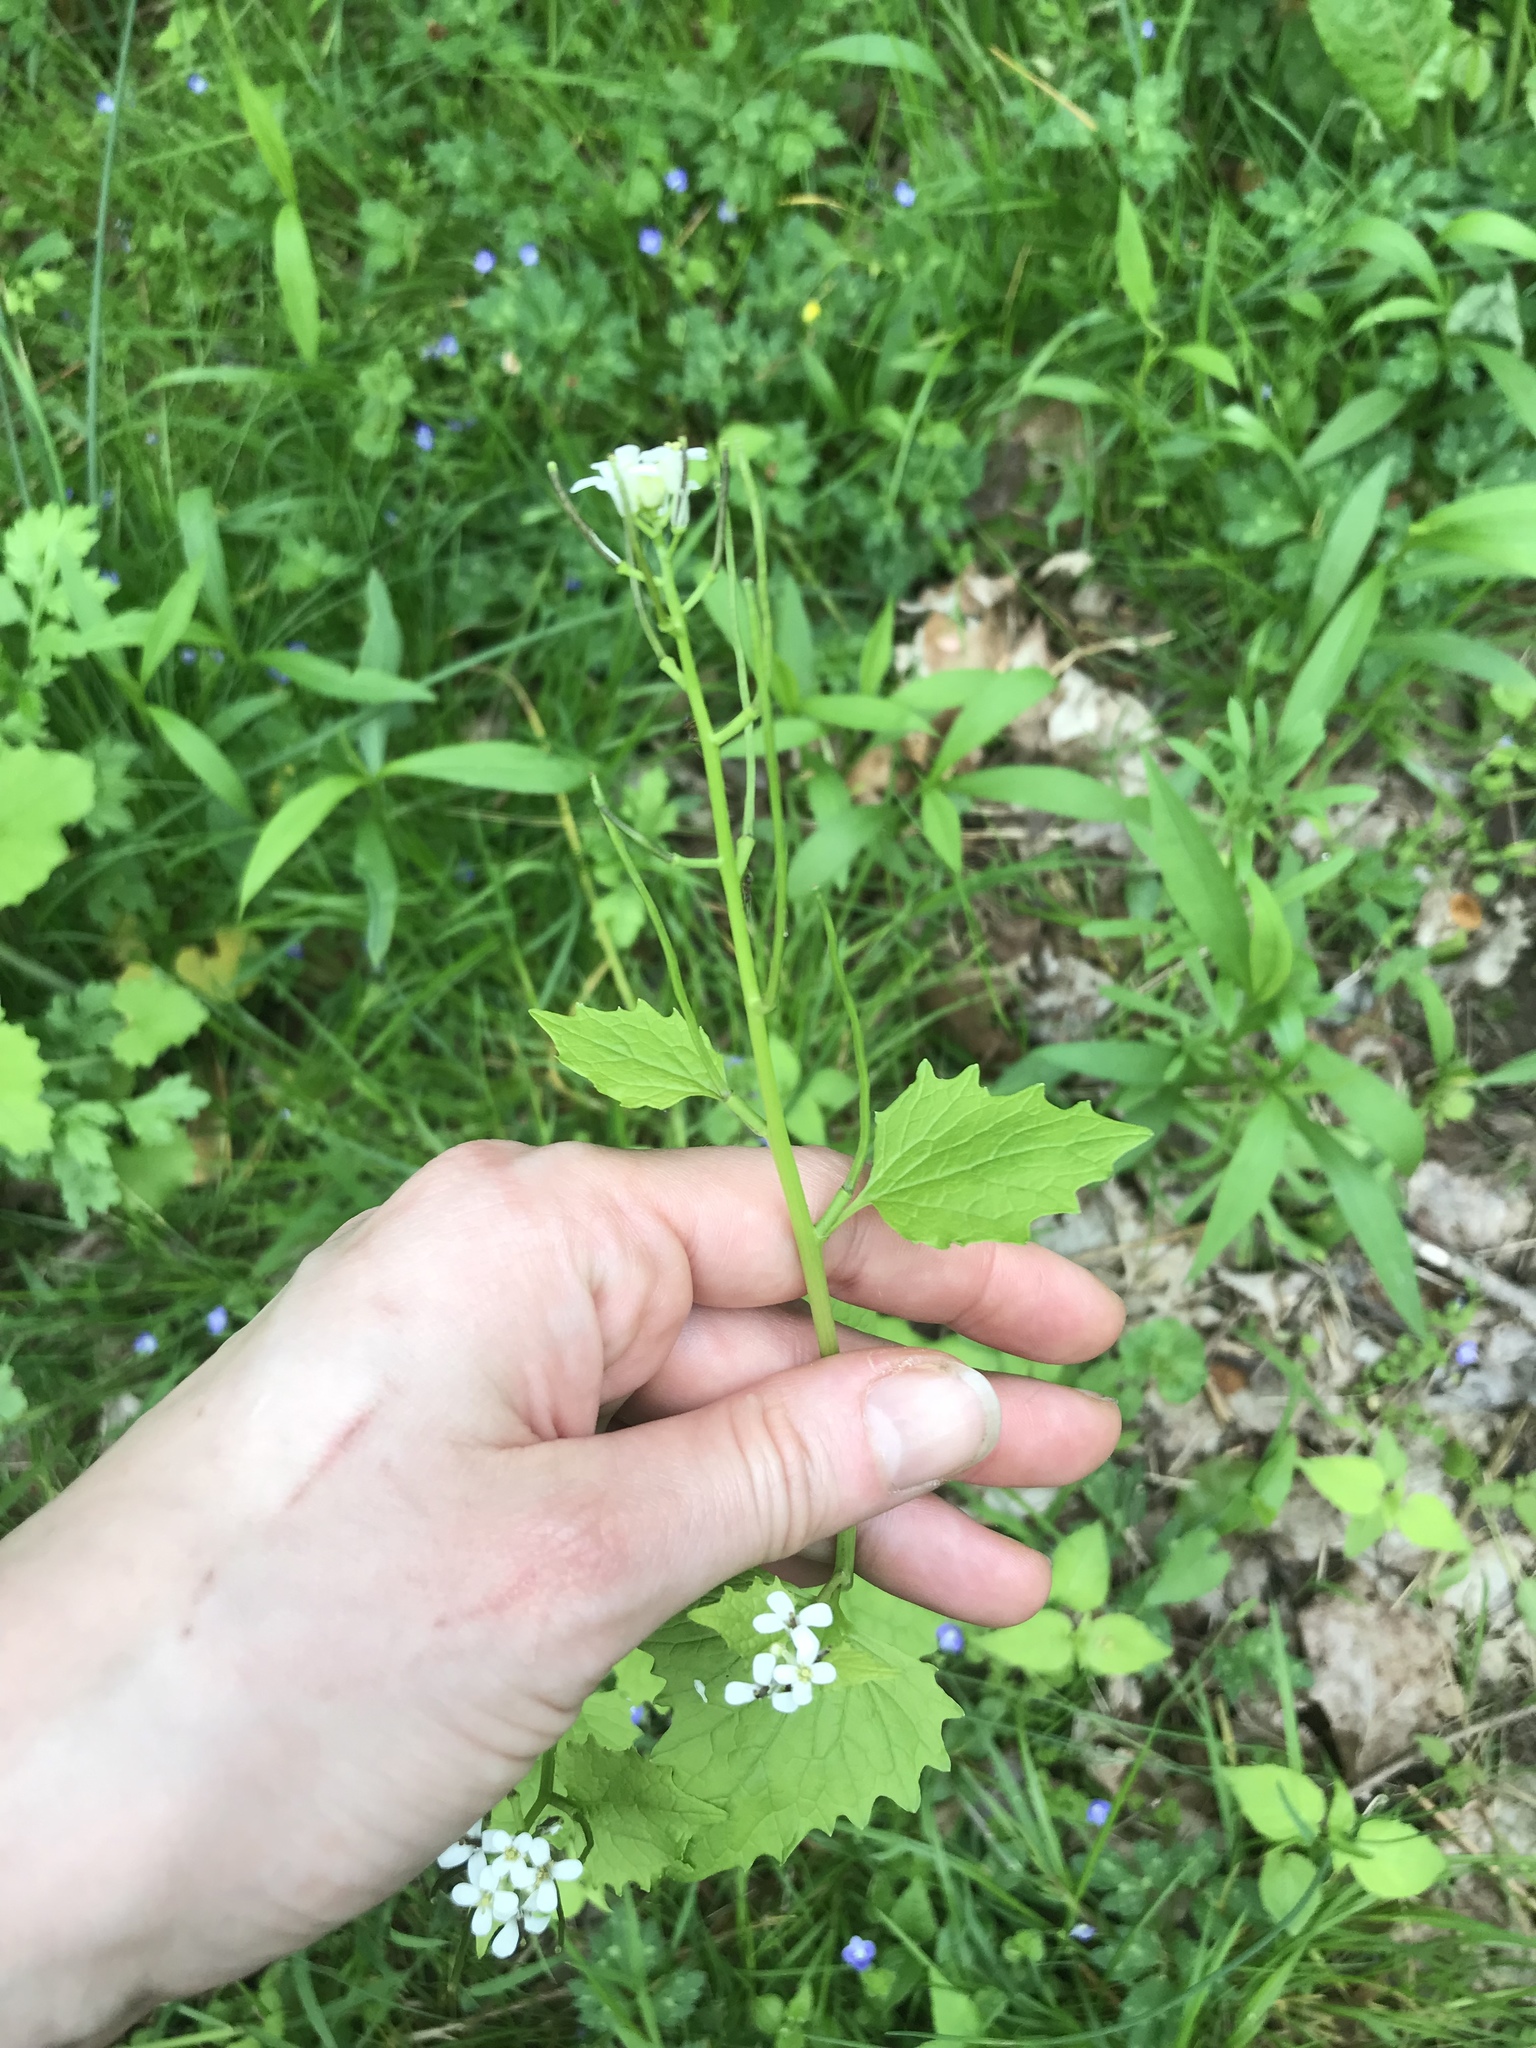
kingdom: Plantae
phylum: Tracheophyta
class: Magnoliopsida
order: Brassicales
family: Brassicaceae
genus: Alliaria
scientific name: Alliaria petiolata
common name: Garlic mustard
